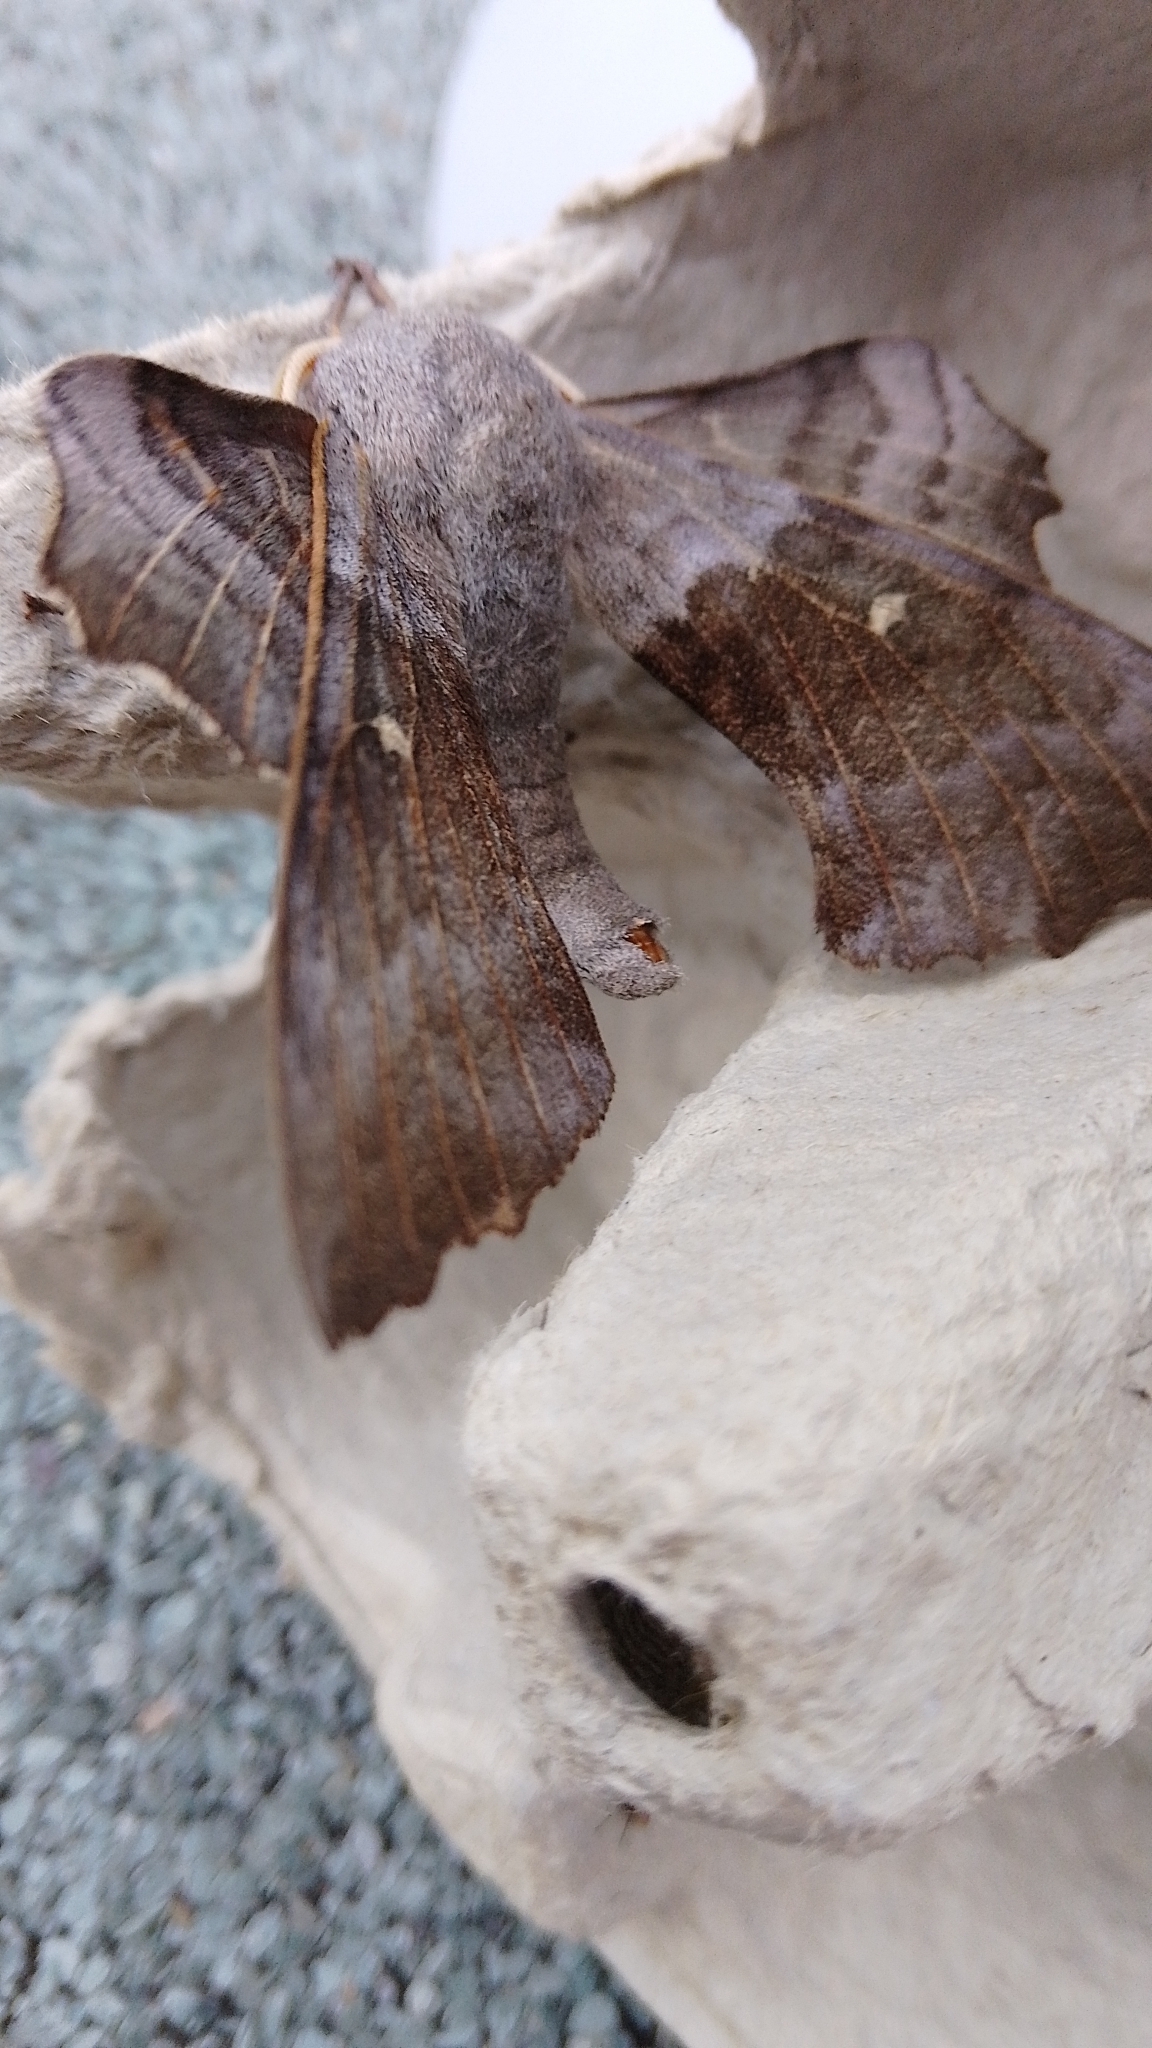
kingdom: Animalia
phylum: Arthropoda
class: Insecta
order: Lepidoptera
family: Sphingidae
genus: Laothoe
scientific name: Laothoe populi
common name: Poplar hawk-moth
